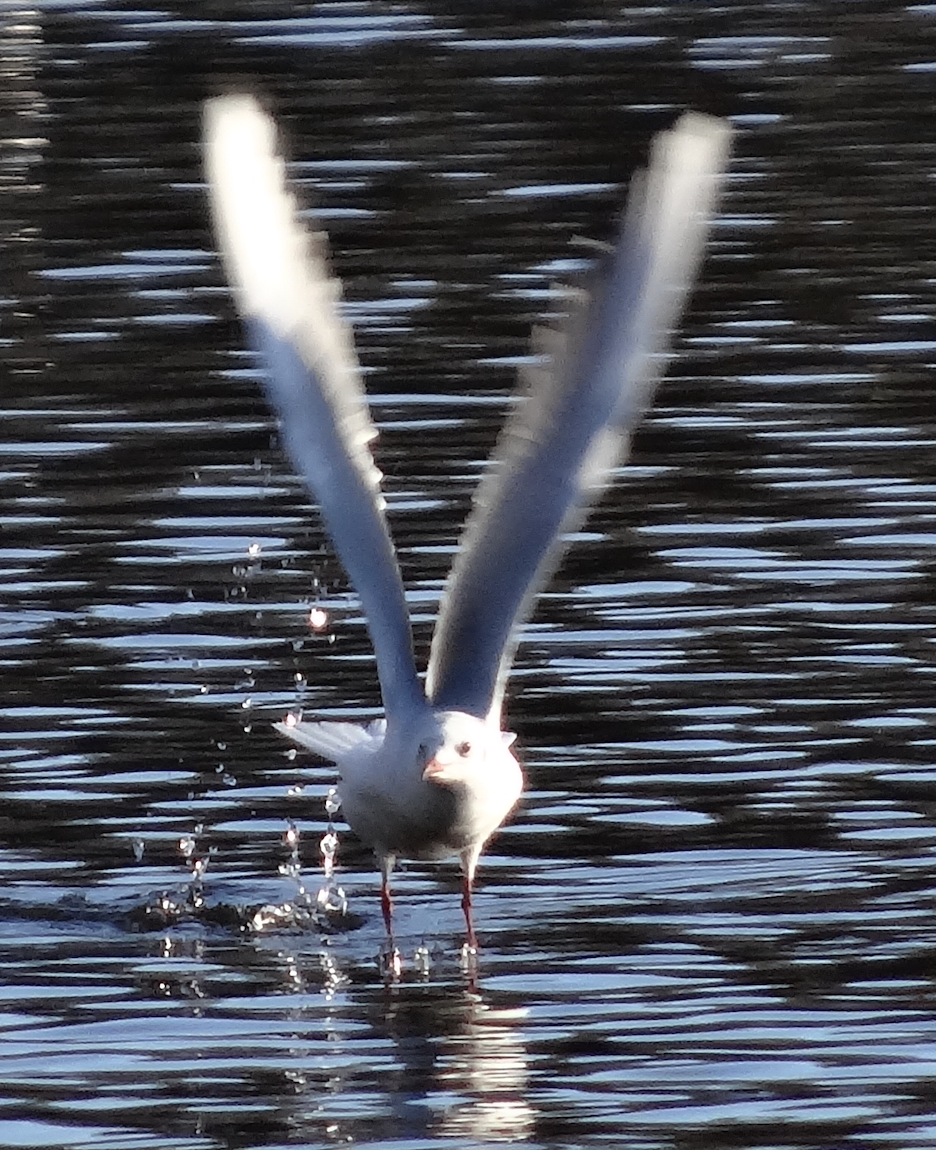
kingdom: Animalia
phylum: Chordata
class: Aves
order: Charadriiformes
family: Laridae
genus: Chroicocephalus
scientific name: Chroicocephalus ridibundus
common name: Black-headed gull
